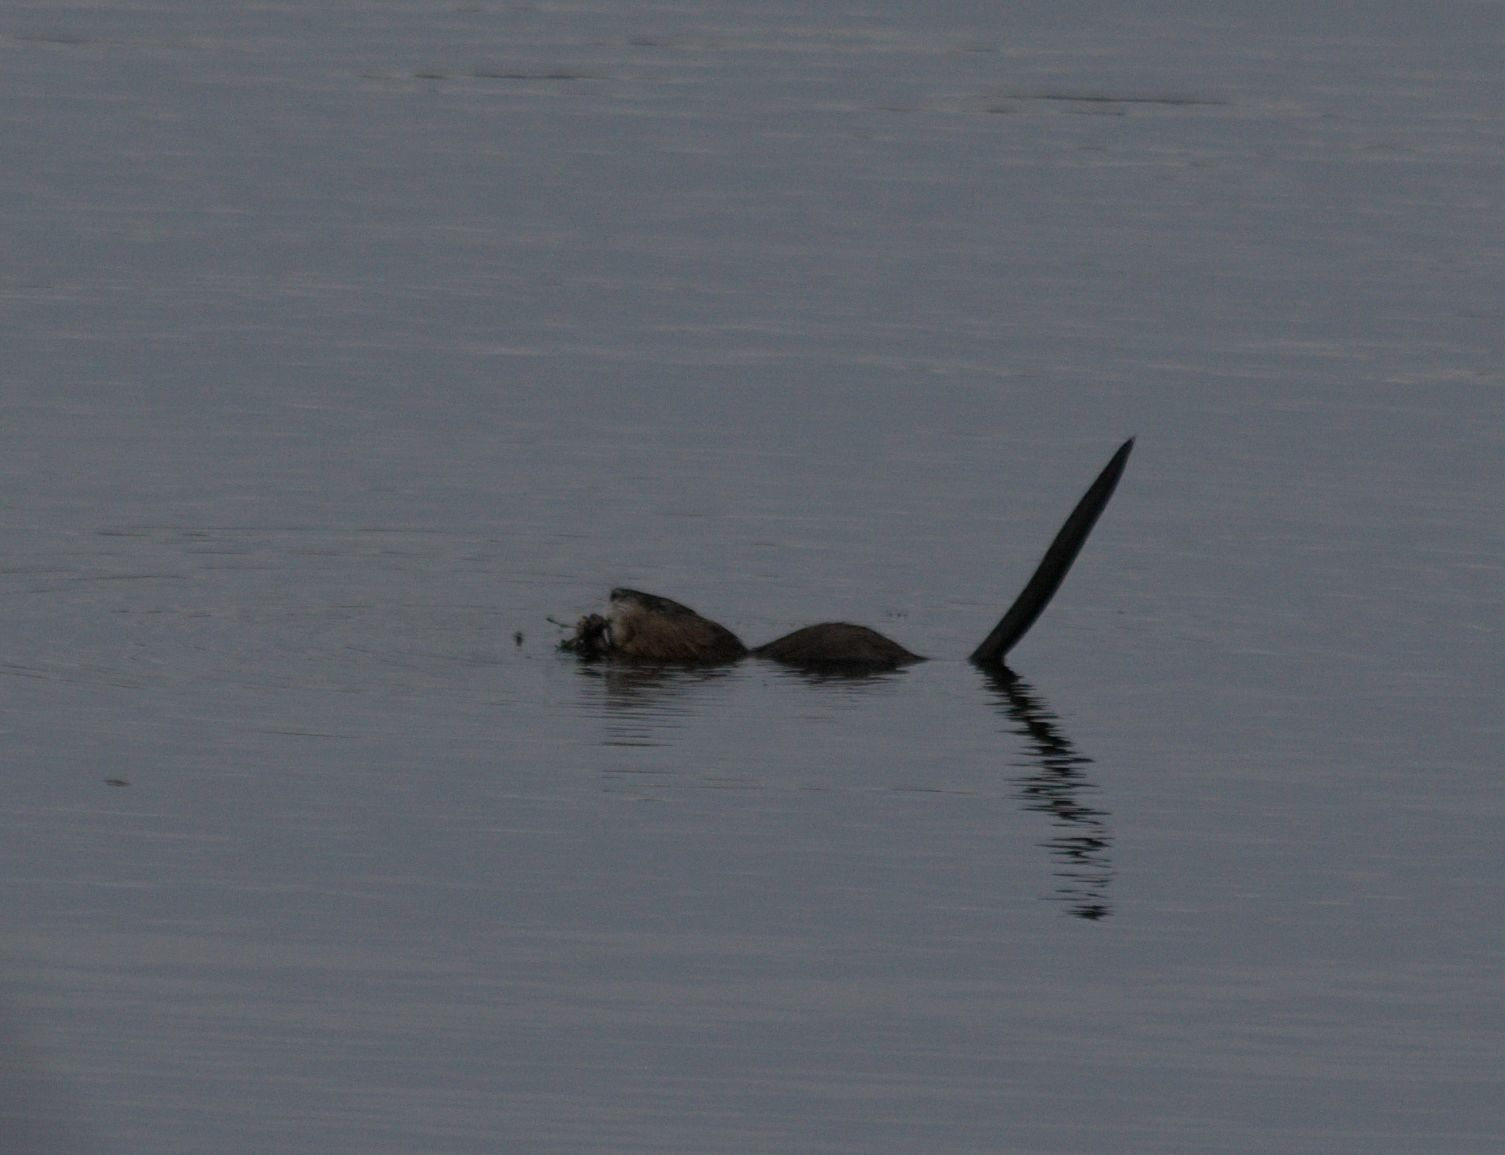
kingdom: Animalia
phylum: Chordata
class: Mammalia
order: Rodentia
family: Cricetidae
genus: Ondatra
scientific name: Ondatra zibethicus
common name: Muskrat
